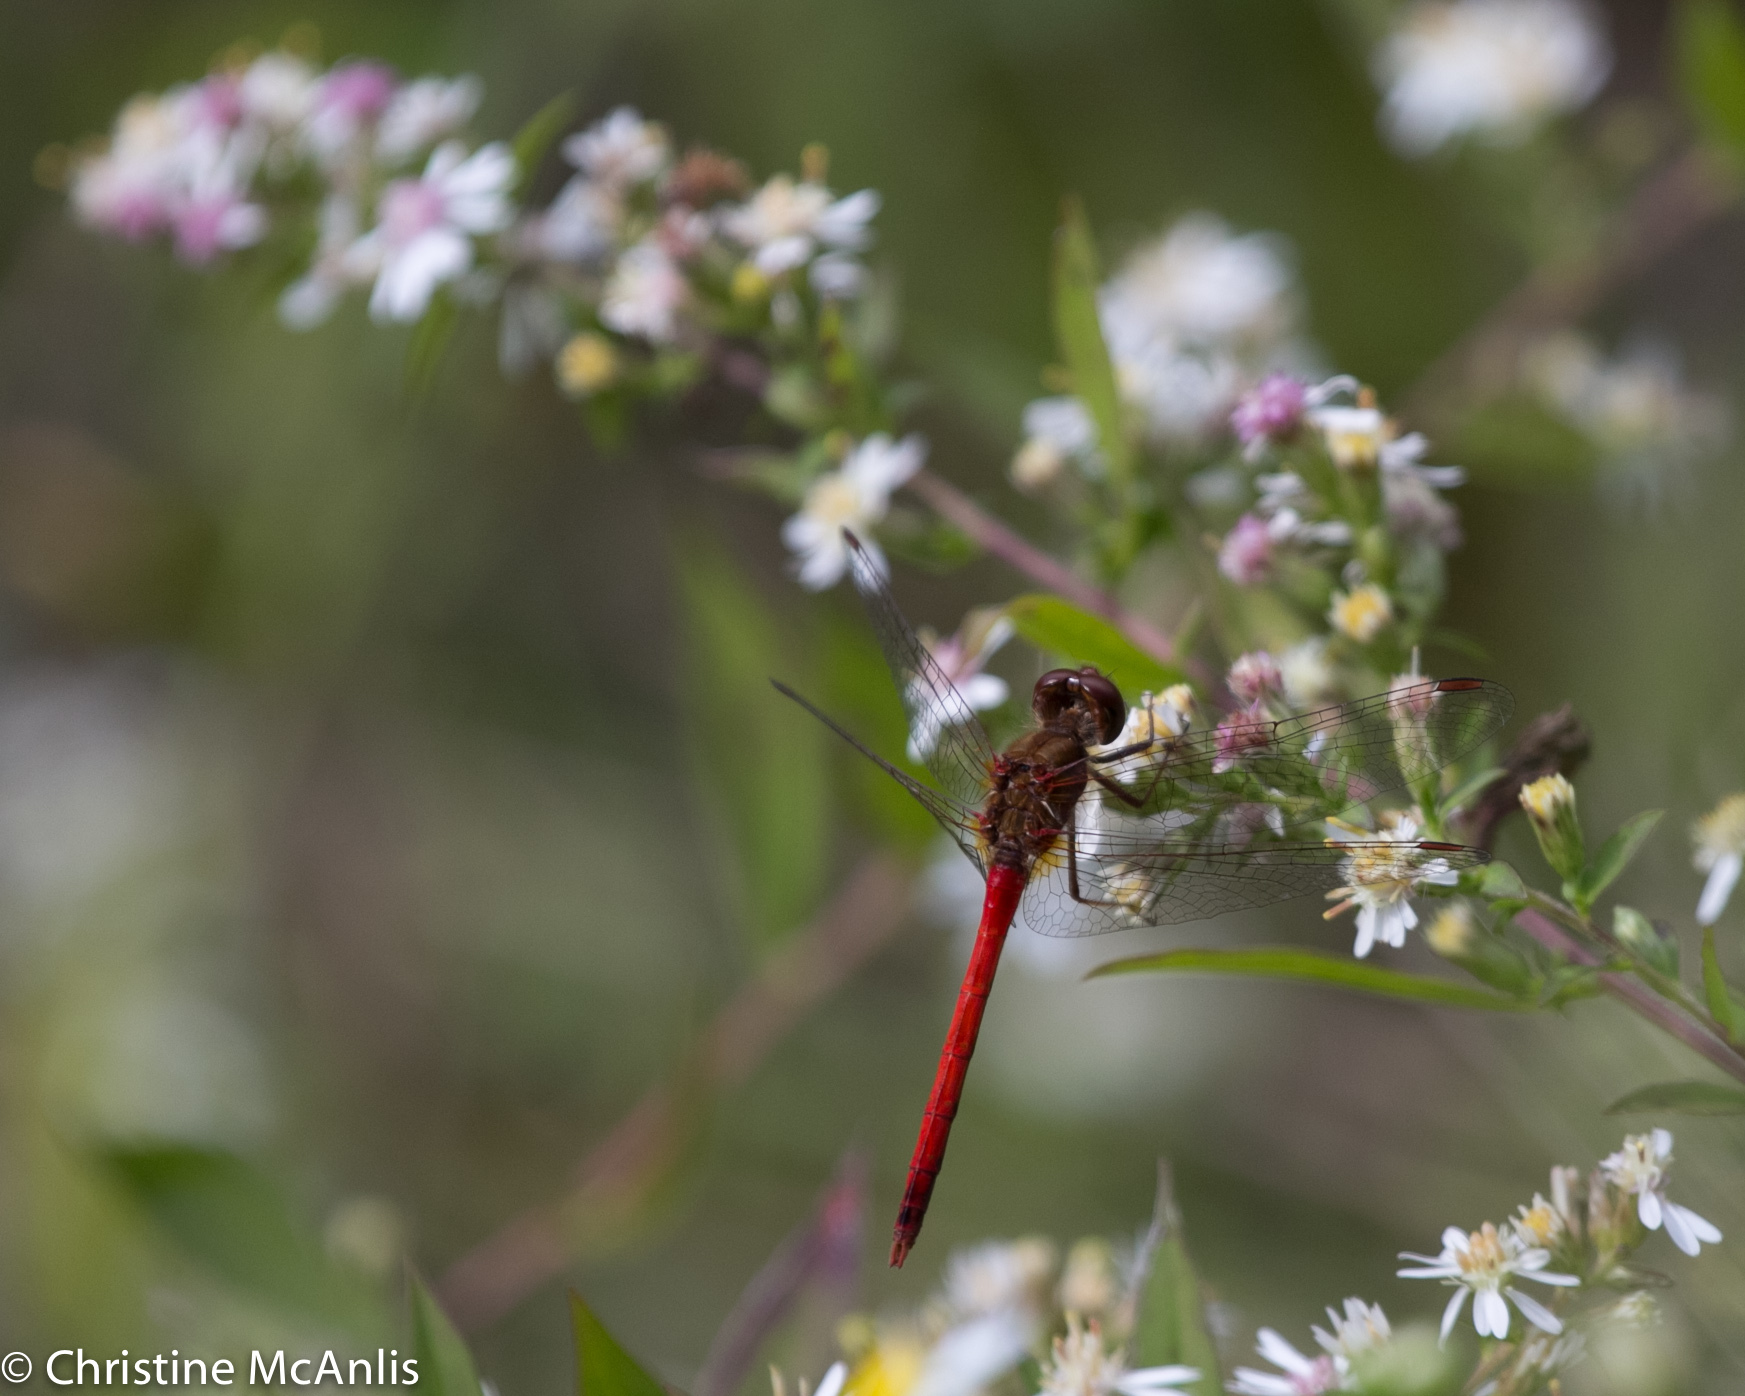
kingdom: Animalia
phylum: Arthropoda
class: Insecta
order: Odonata
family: Libellulidae
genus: Sympetrum
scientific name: Sympetrum vicinum
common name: Autumn meadowhawk
